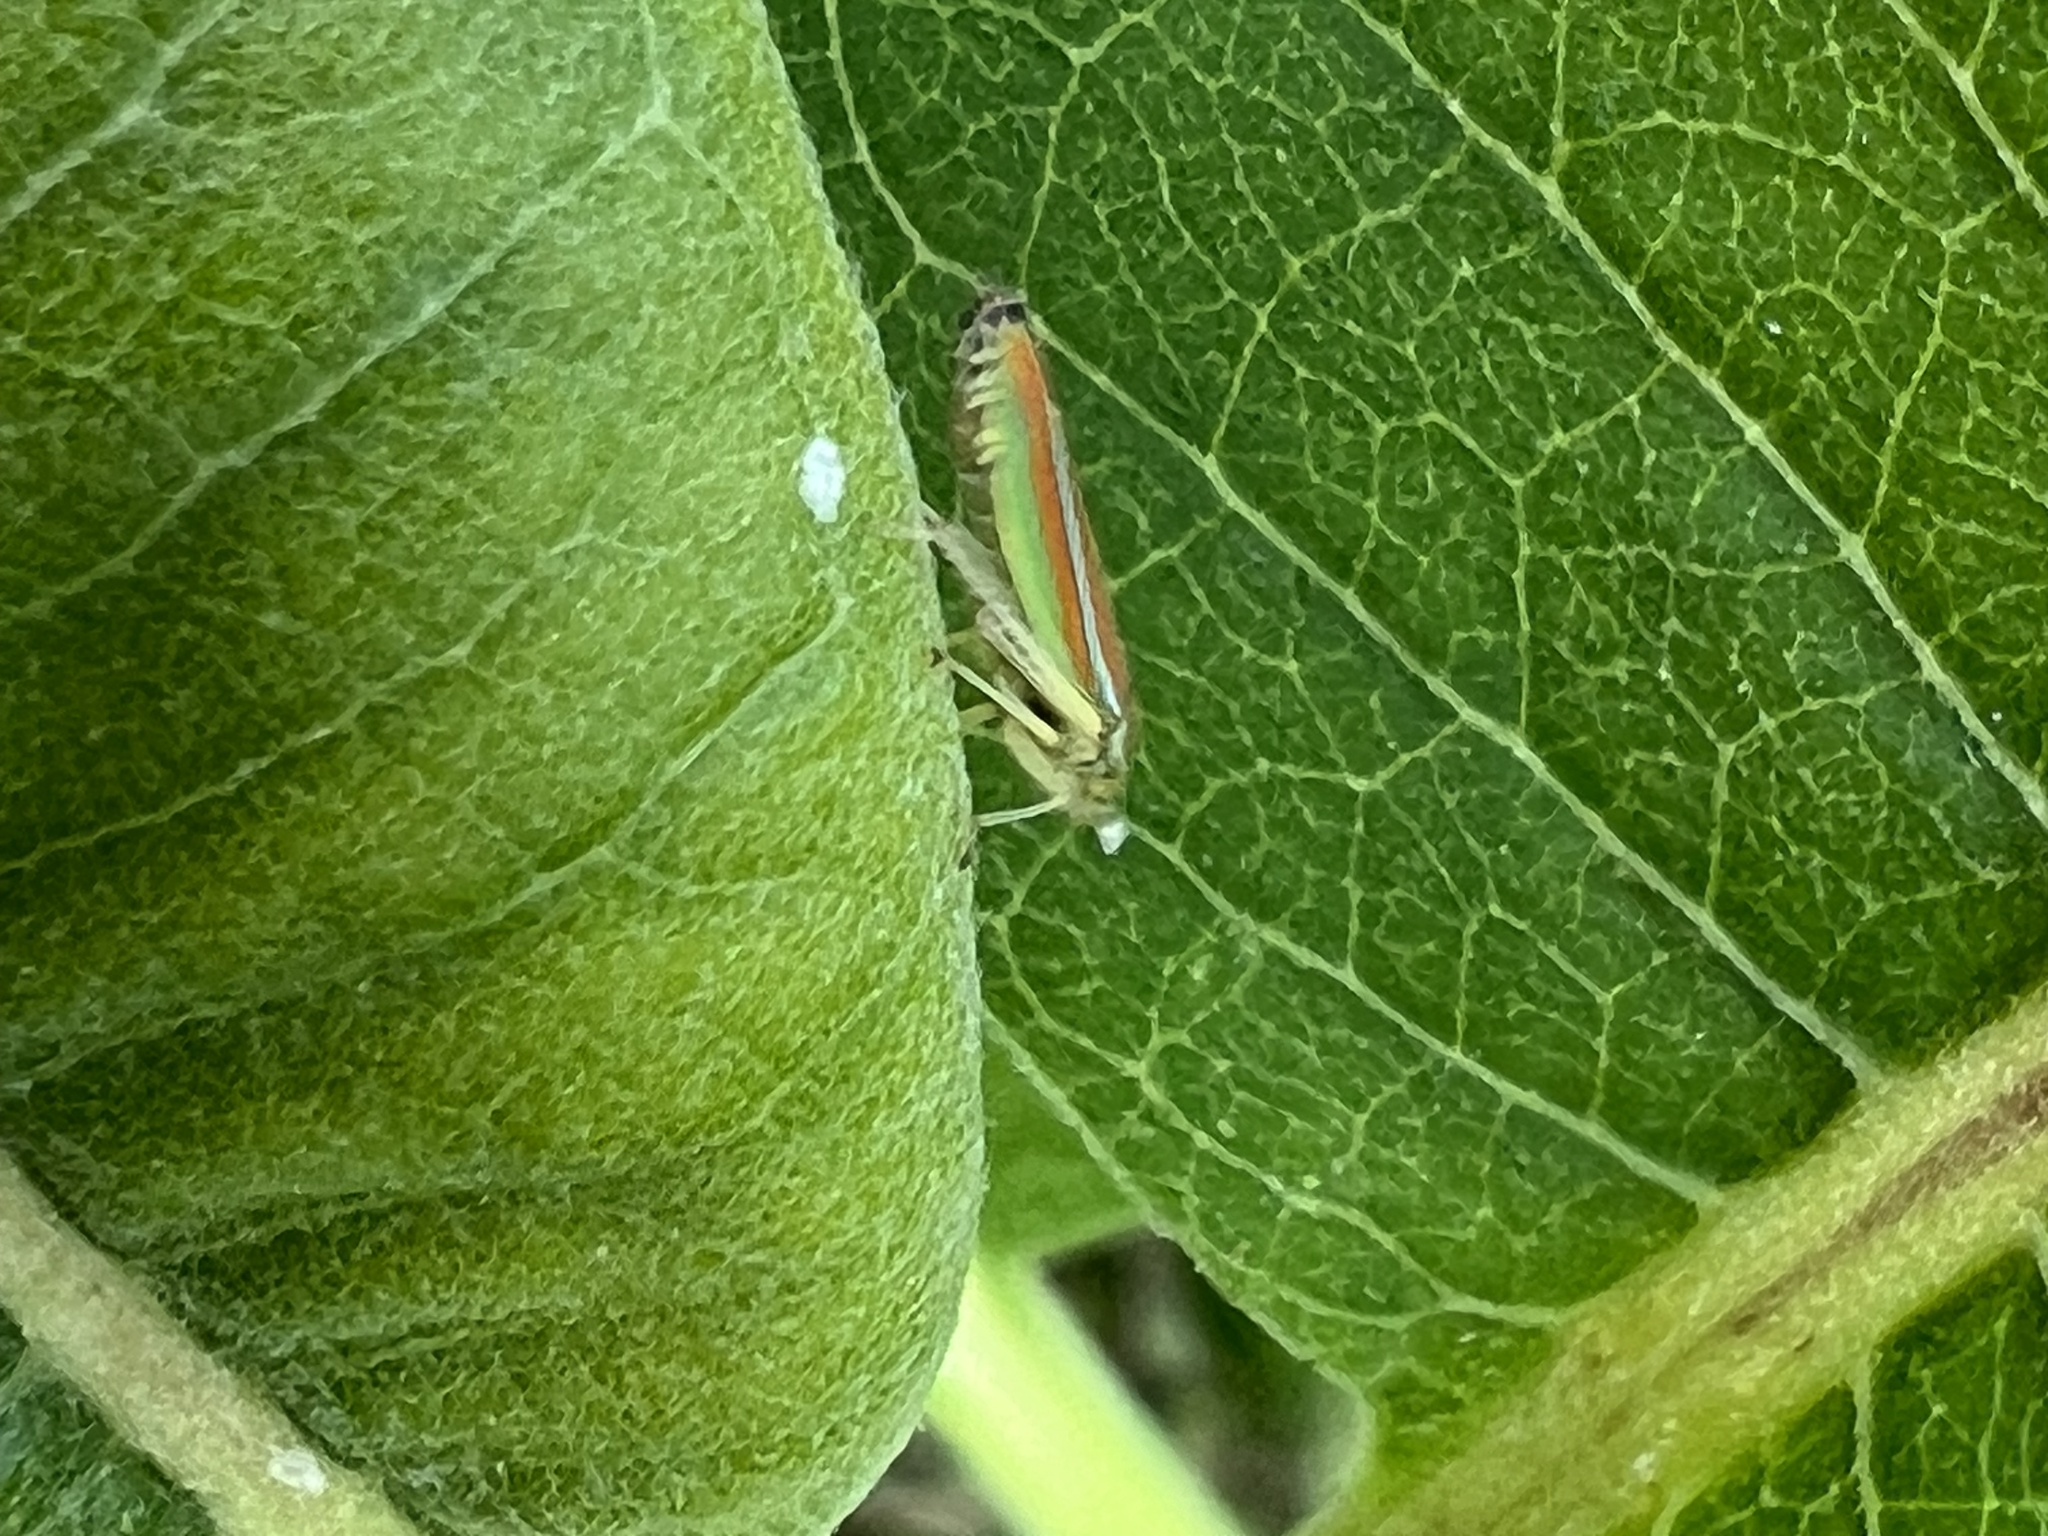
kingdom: Animalia
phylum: Arthropoda
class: Insecta
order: Hemiptera
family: Cicadellidae
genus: Graphocephala
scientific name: Graphocephala versuta
